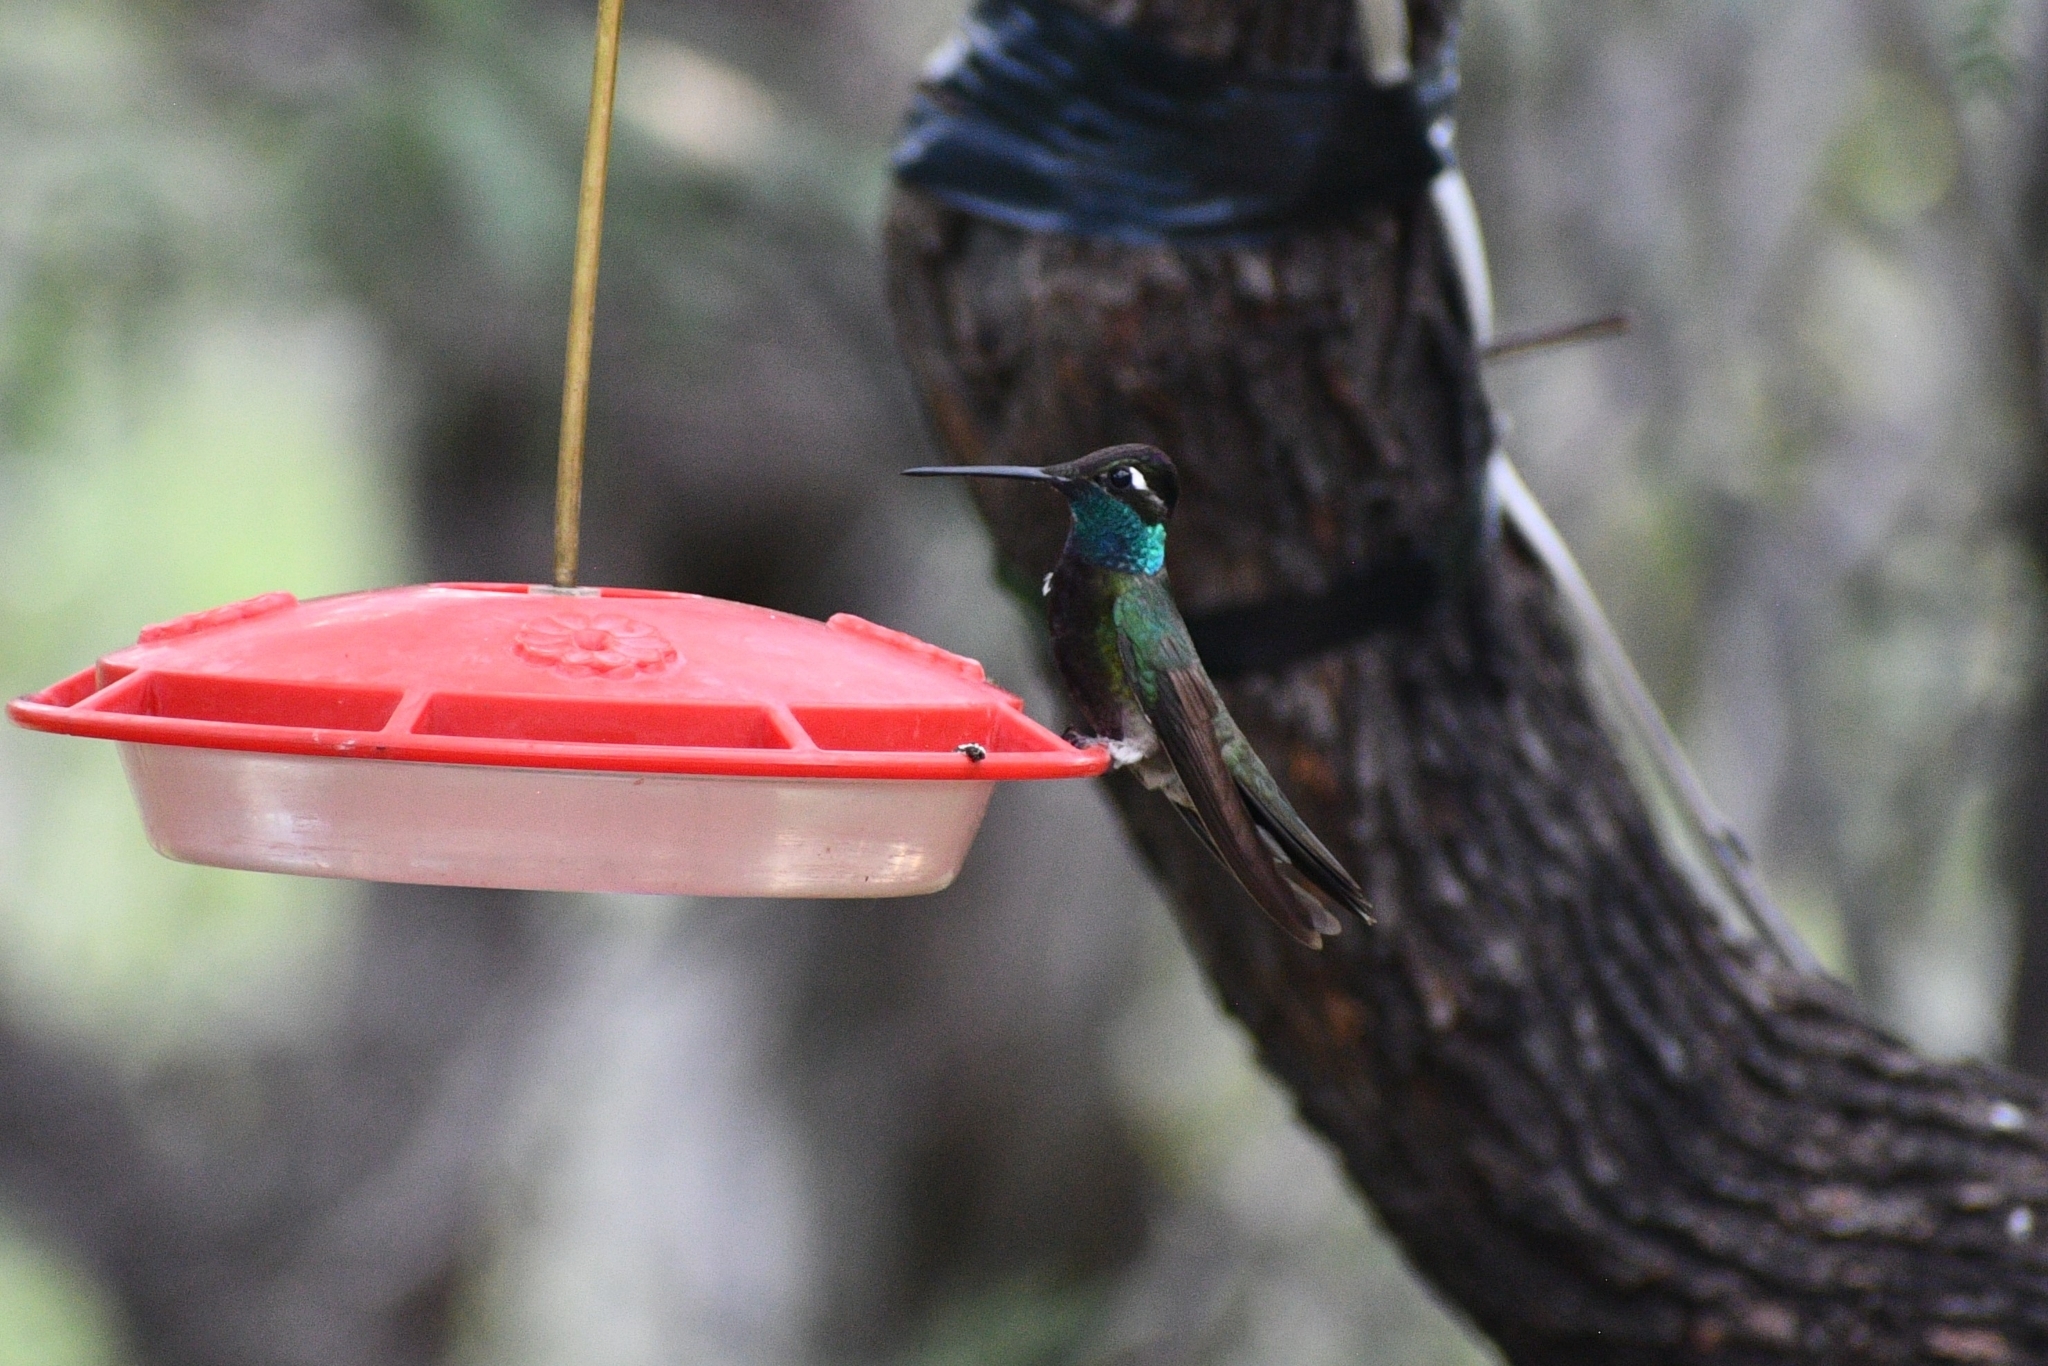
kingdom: Animalia
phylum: Chordata
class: Aves
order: Apodiformes
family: Trochilidae
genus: Eugenes
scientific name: Eugenes fulgens
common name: Magnificent hummingbird
